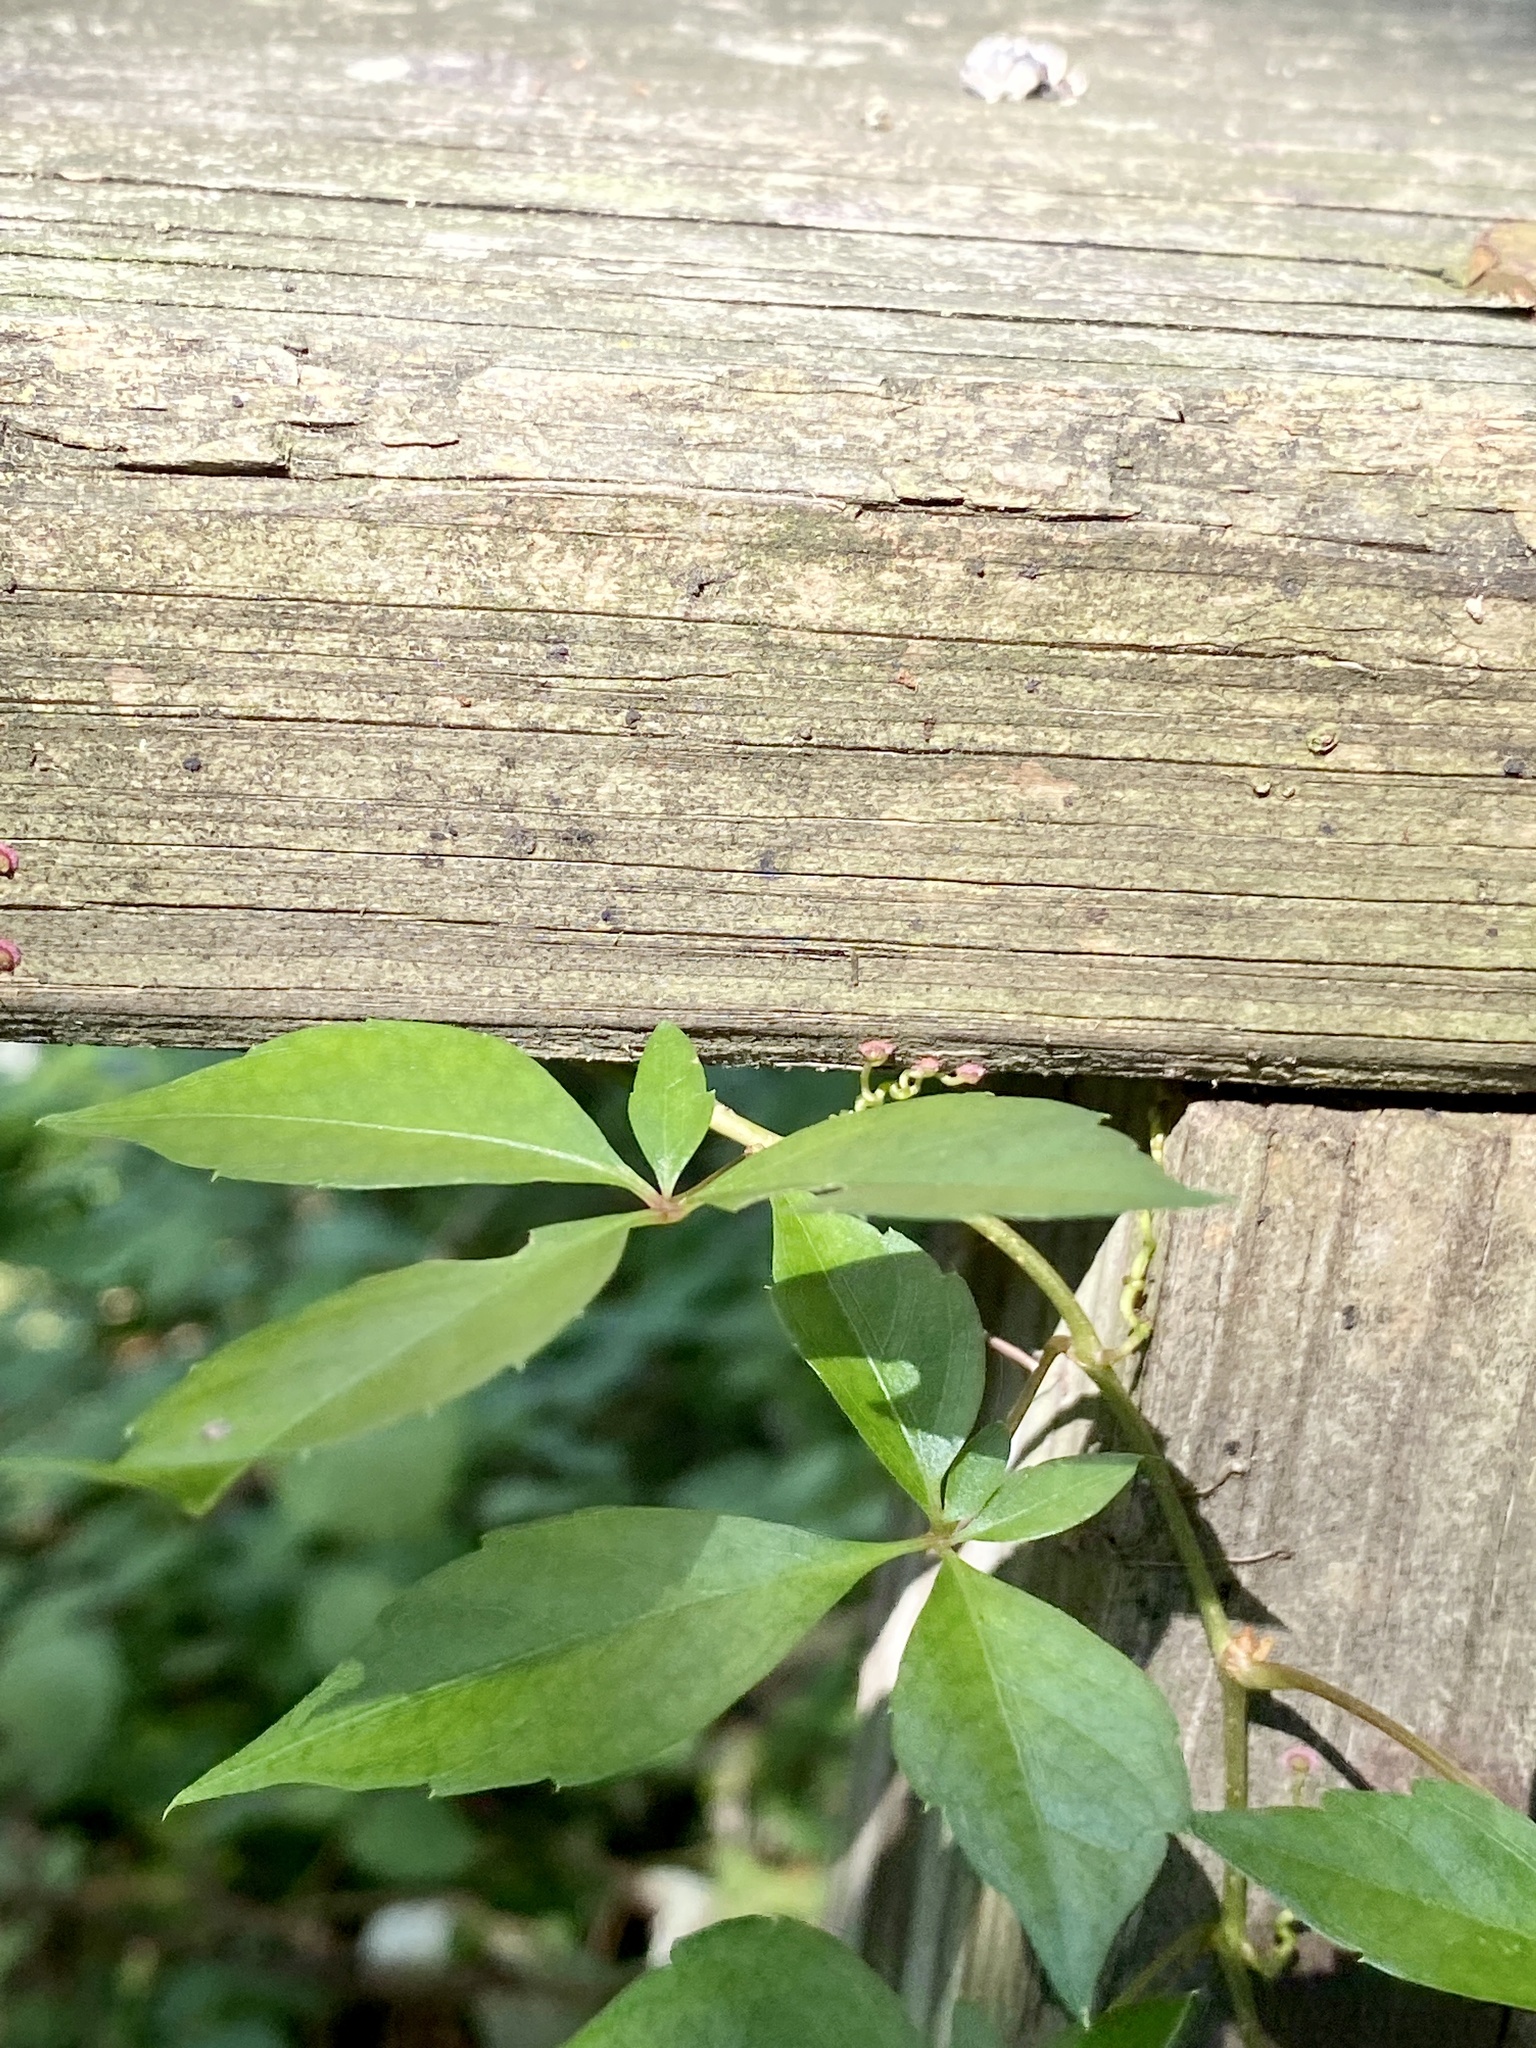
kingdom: Plantae
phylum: Tracheophyta
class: Magnoliopsida
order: Vitales
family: Vitaceae
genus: Parthenocissus
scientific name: Parthenocissus quinquefolia
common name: Virginia-creeper
